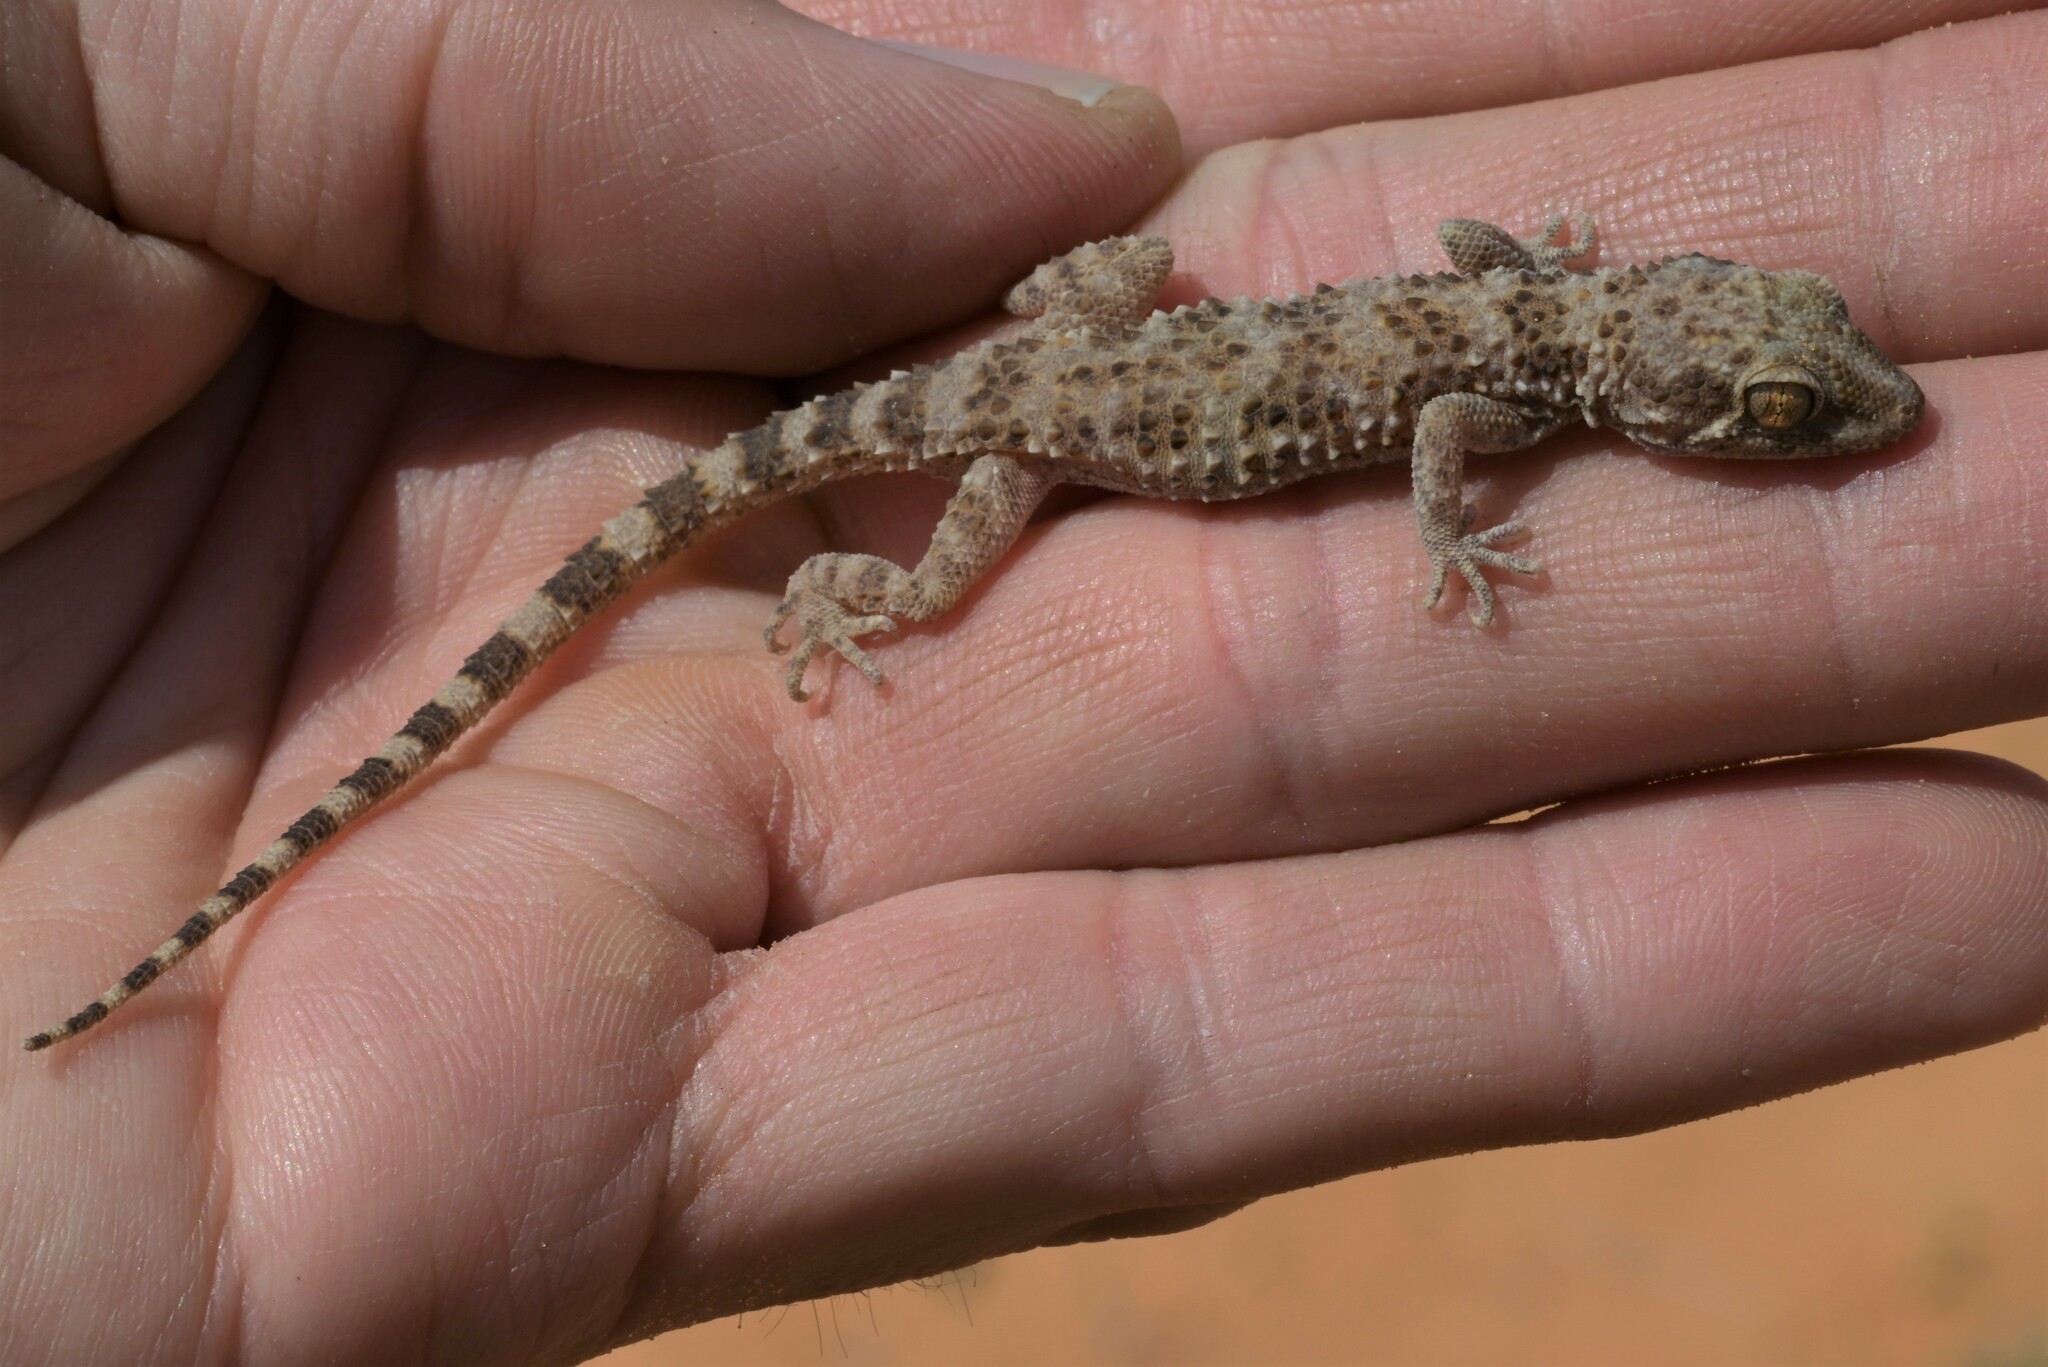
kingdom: Animalia
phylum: Chordata
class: Squamata
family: Gekkonidae
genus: Bunopus
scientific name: Bunopus tuberculatus
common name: Southern tuberculated gecko
